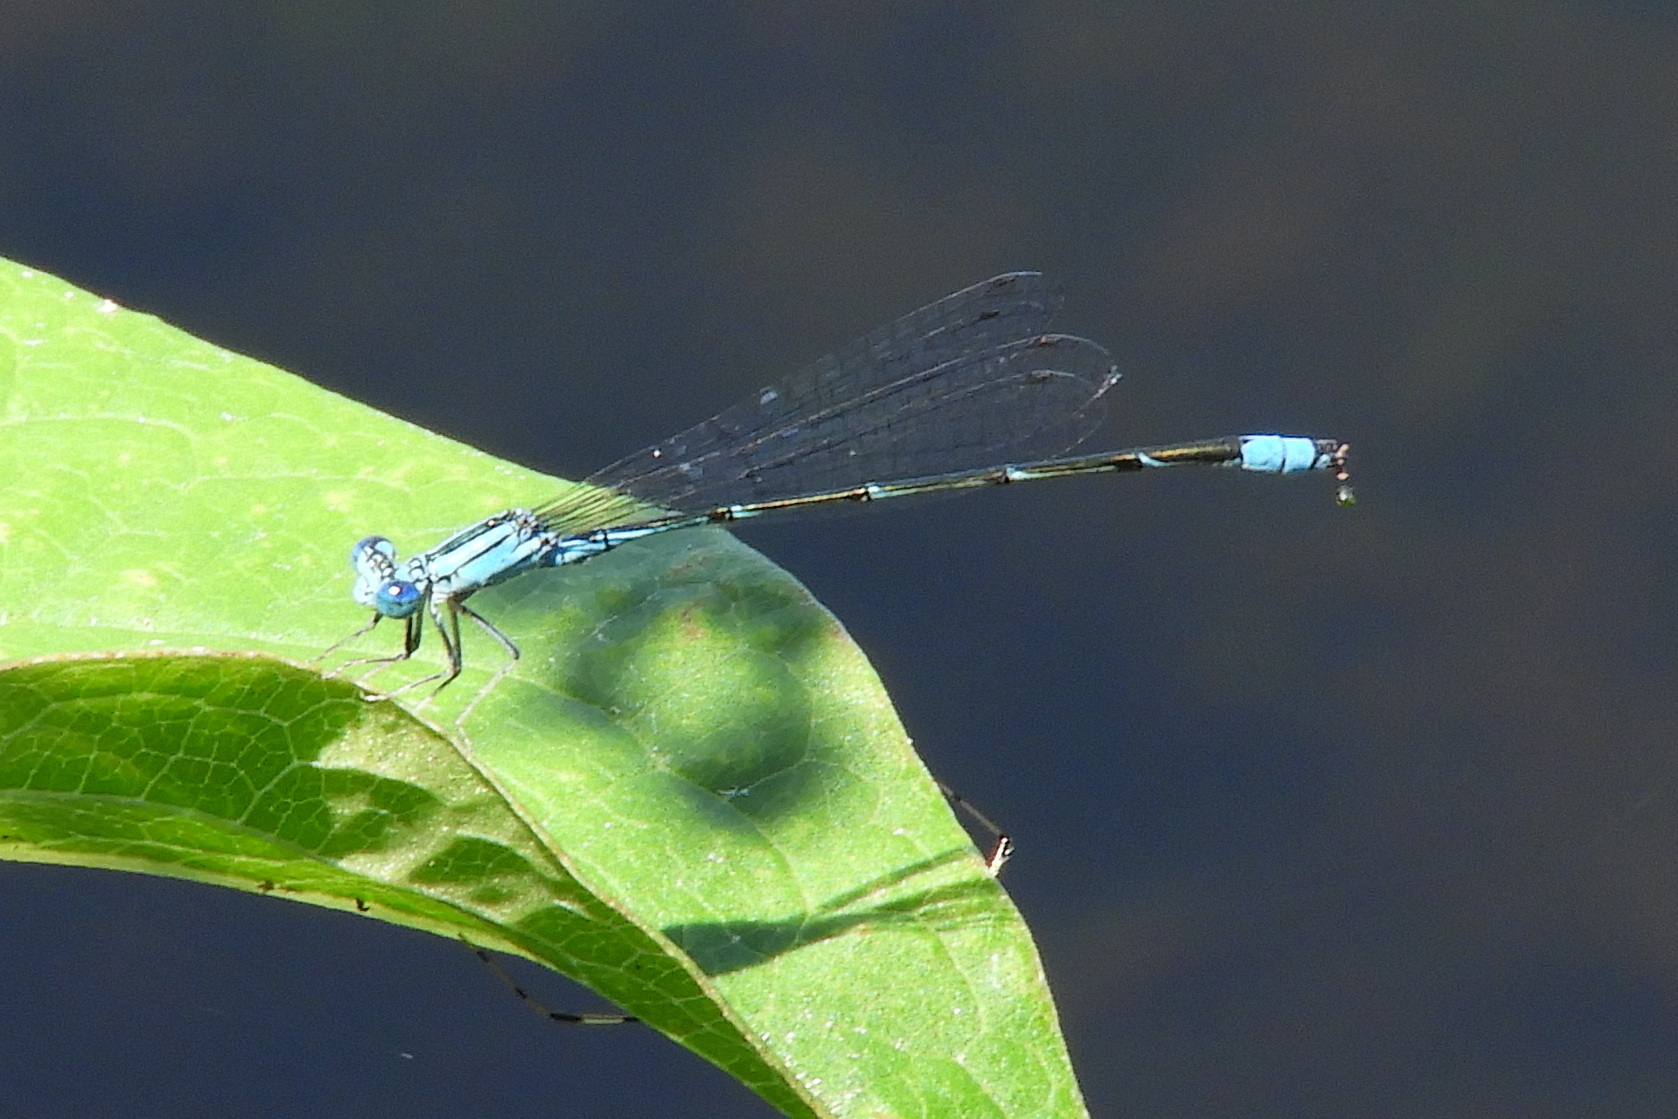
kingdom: Animalia
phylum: Arthropoda
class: Insecta
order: Odonata
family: Coenagrionidae
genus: Enallagma
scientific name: Enallagma traviatum
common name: Slender bluet
